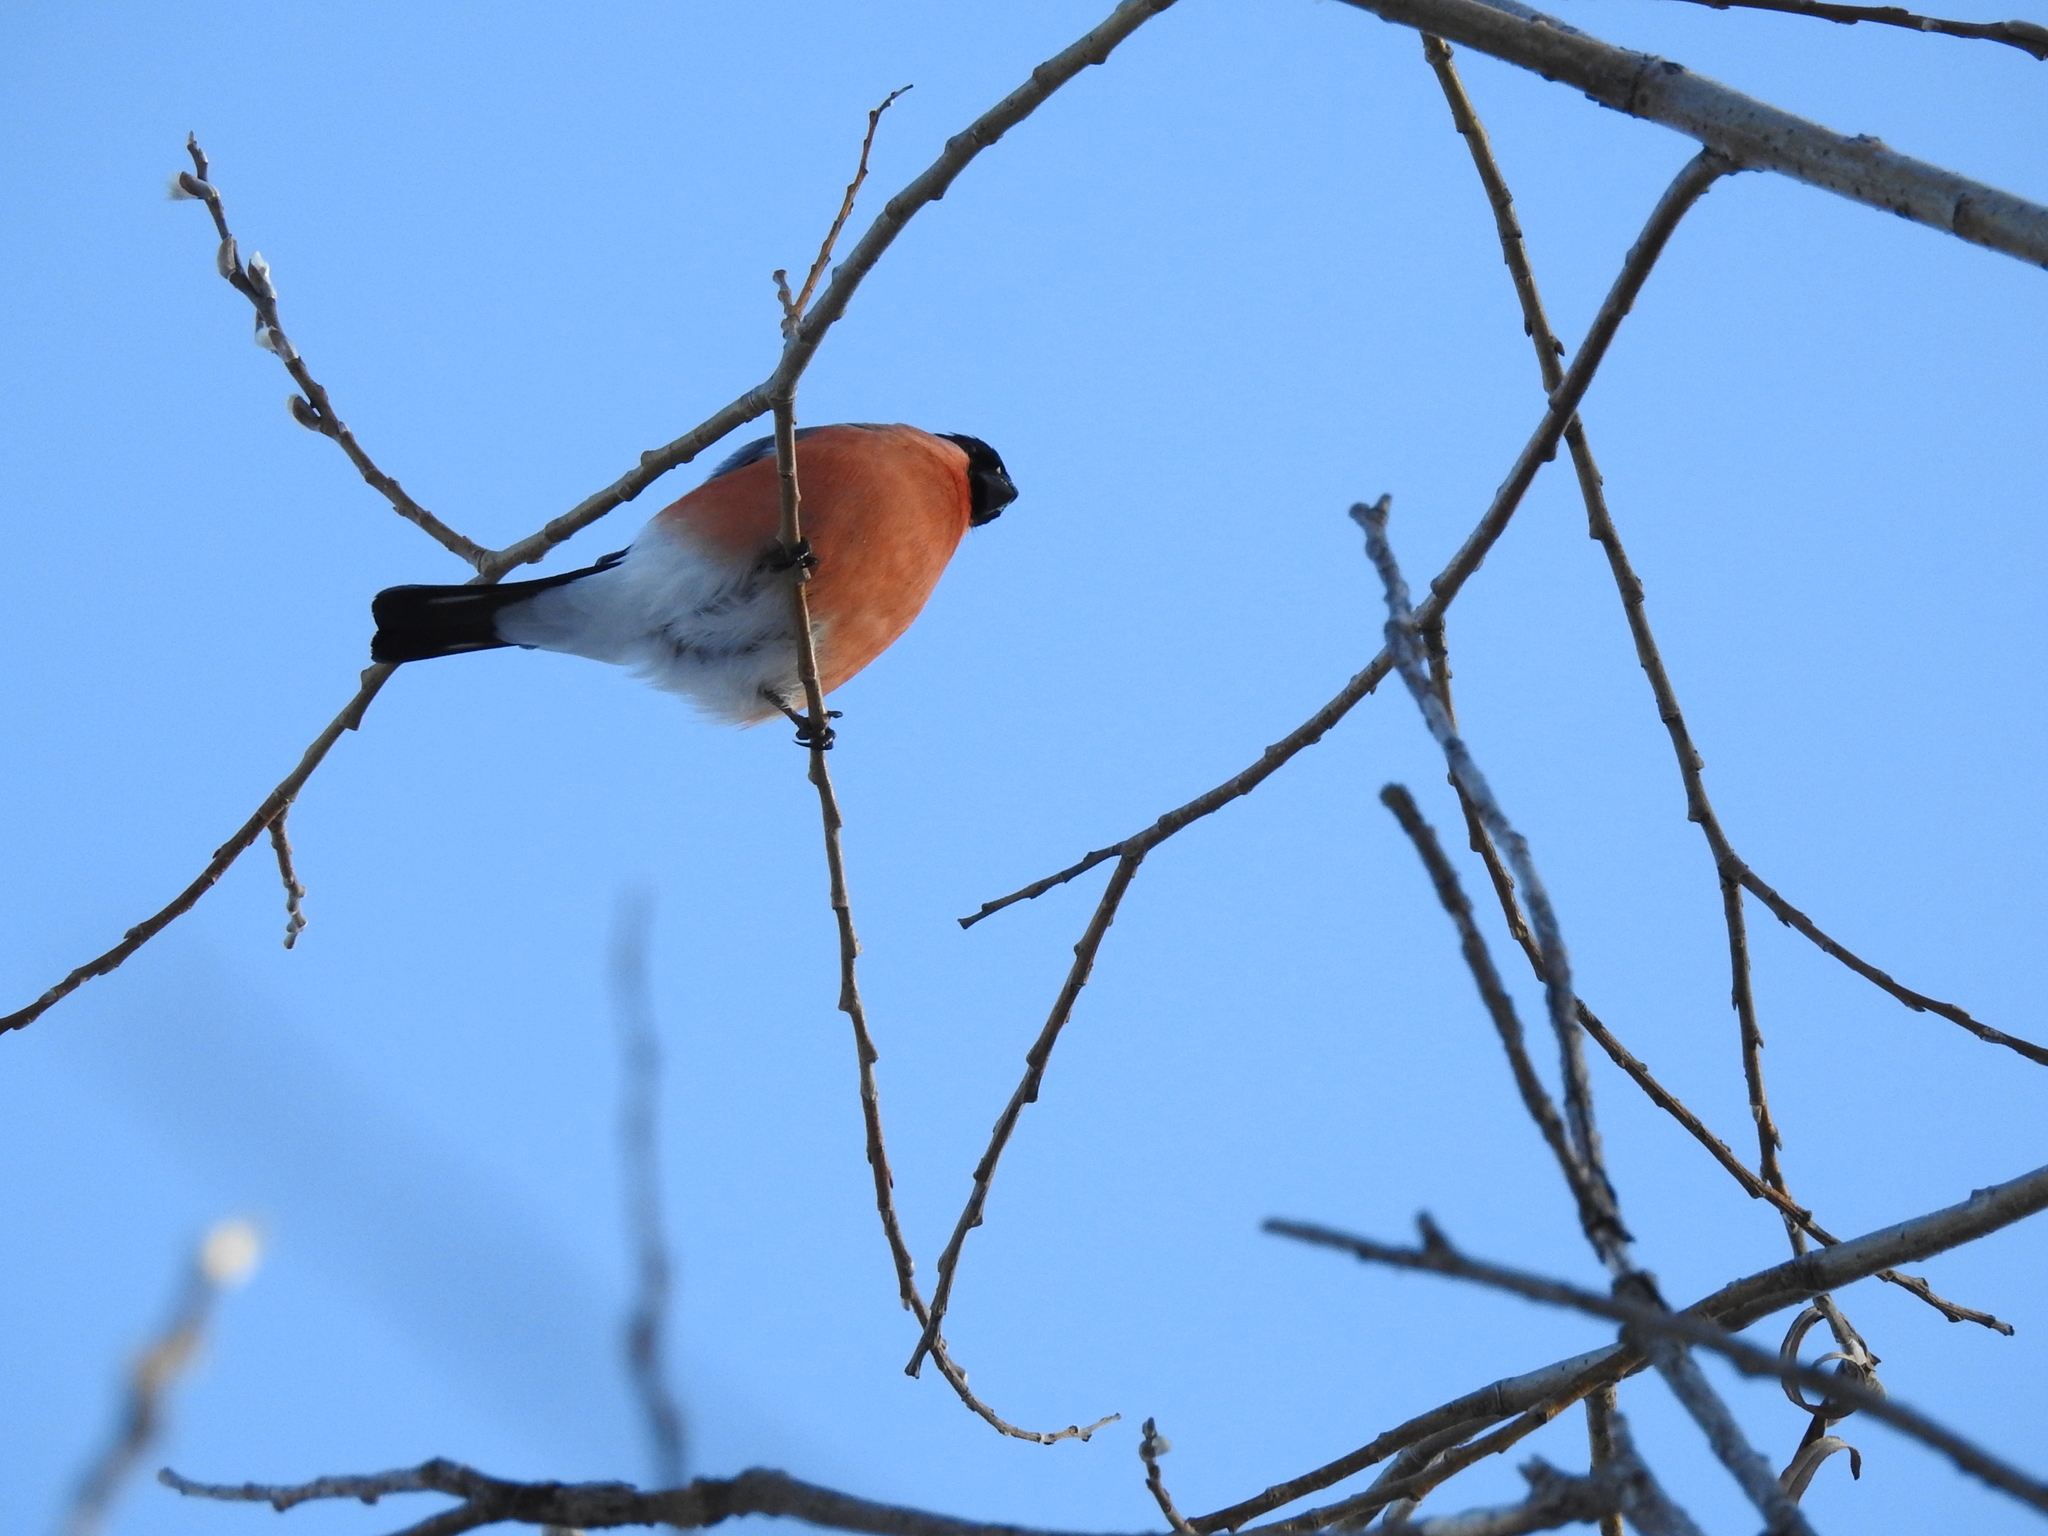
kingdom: Animalia
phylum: Chordata
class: Aves
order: Passeriformes
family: Fringillidae
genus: Pyrrhula
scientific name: Pyrrhula pyrrhula
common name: Eurasian bullfinch
